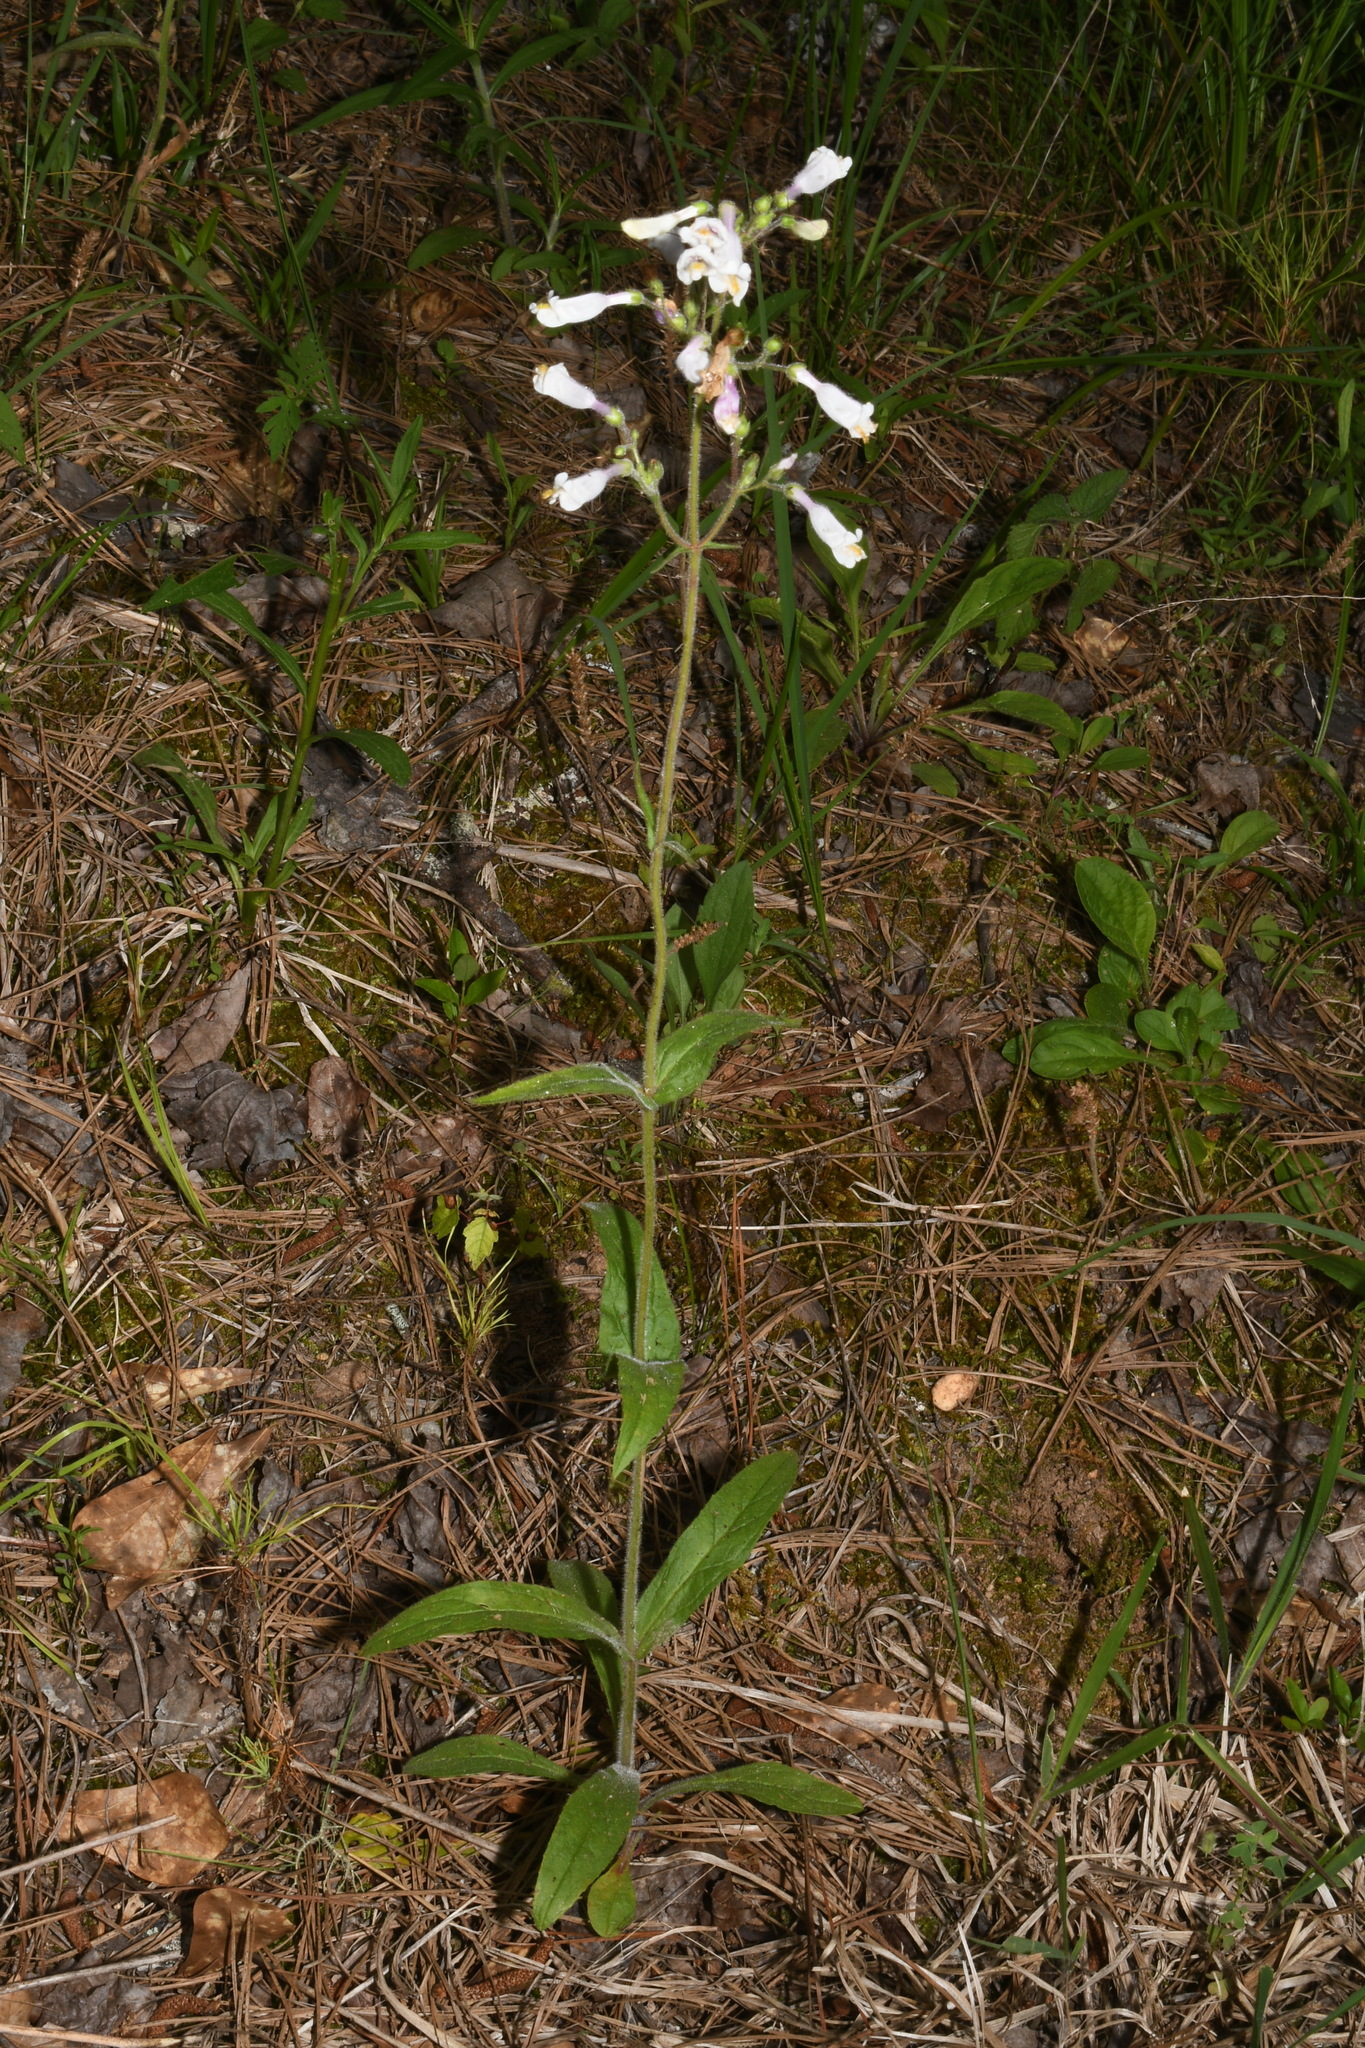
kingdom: Plantae
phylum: Tracheophyta
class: Magnoliopsida
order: Lamiales
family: Plantaginaceae
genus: Penstemon
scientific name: Penstemon tenuiflorus
